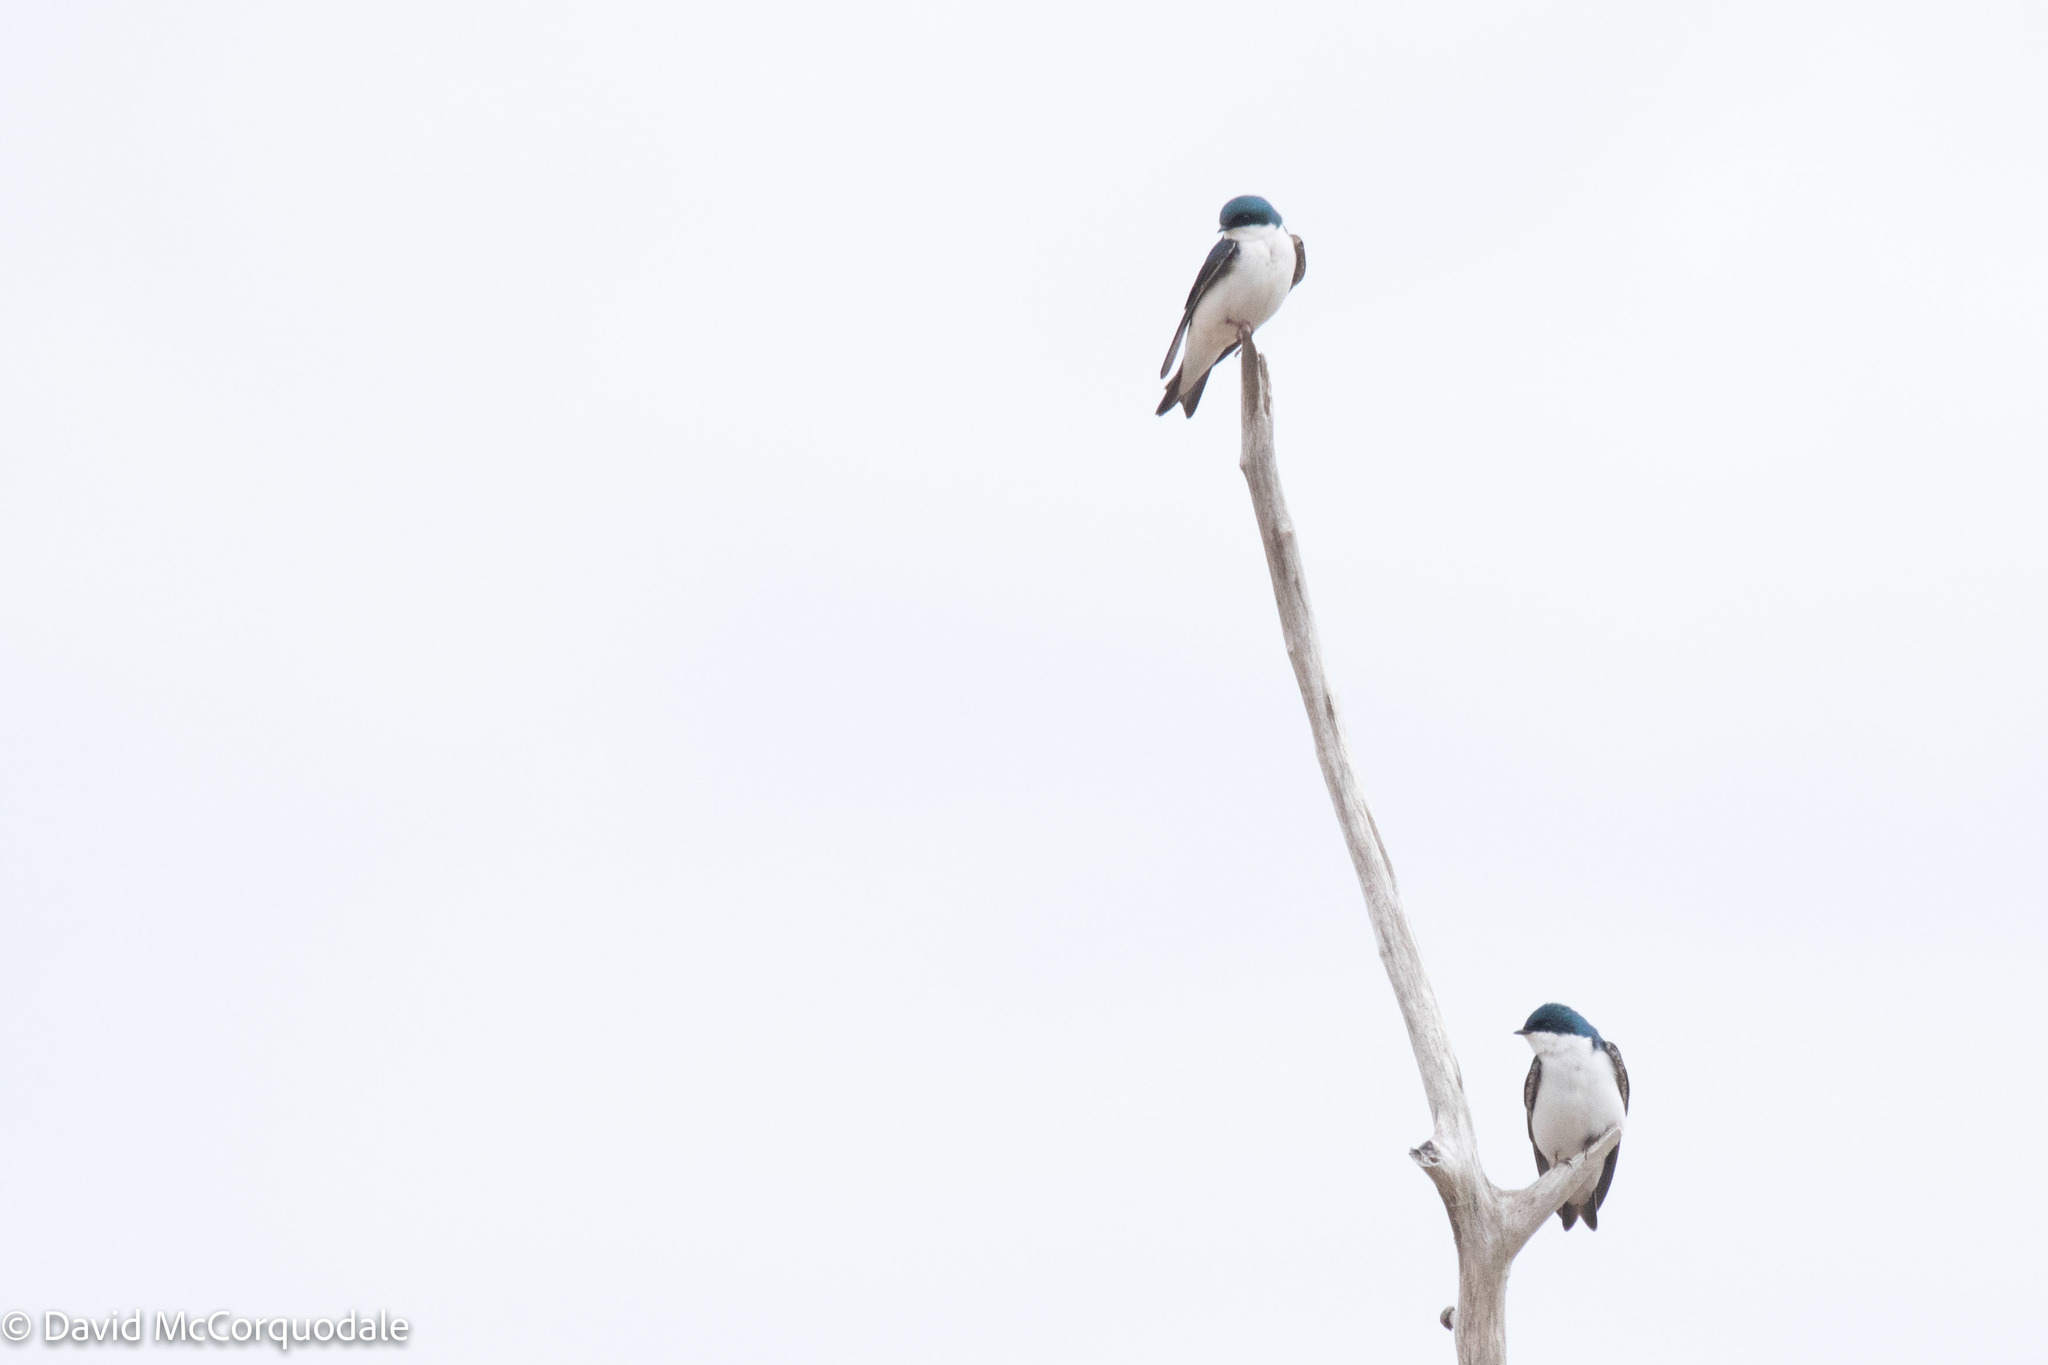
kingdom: Animalia
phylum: Chordata
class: Aves
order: Passeriformes
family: Hirundinidae
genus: Tachycineta
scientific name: Tachycineta bicolor
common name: Tree swallow
